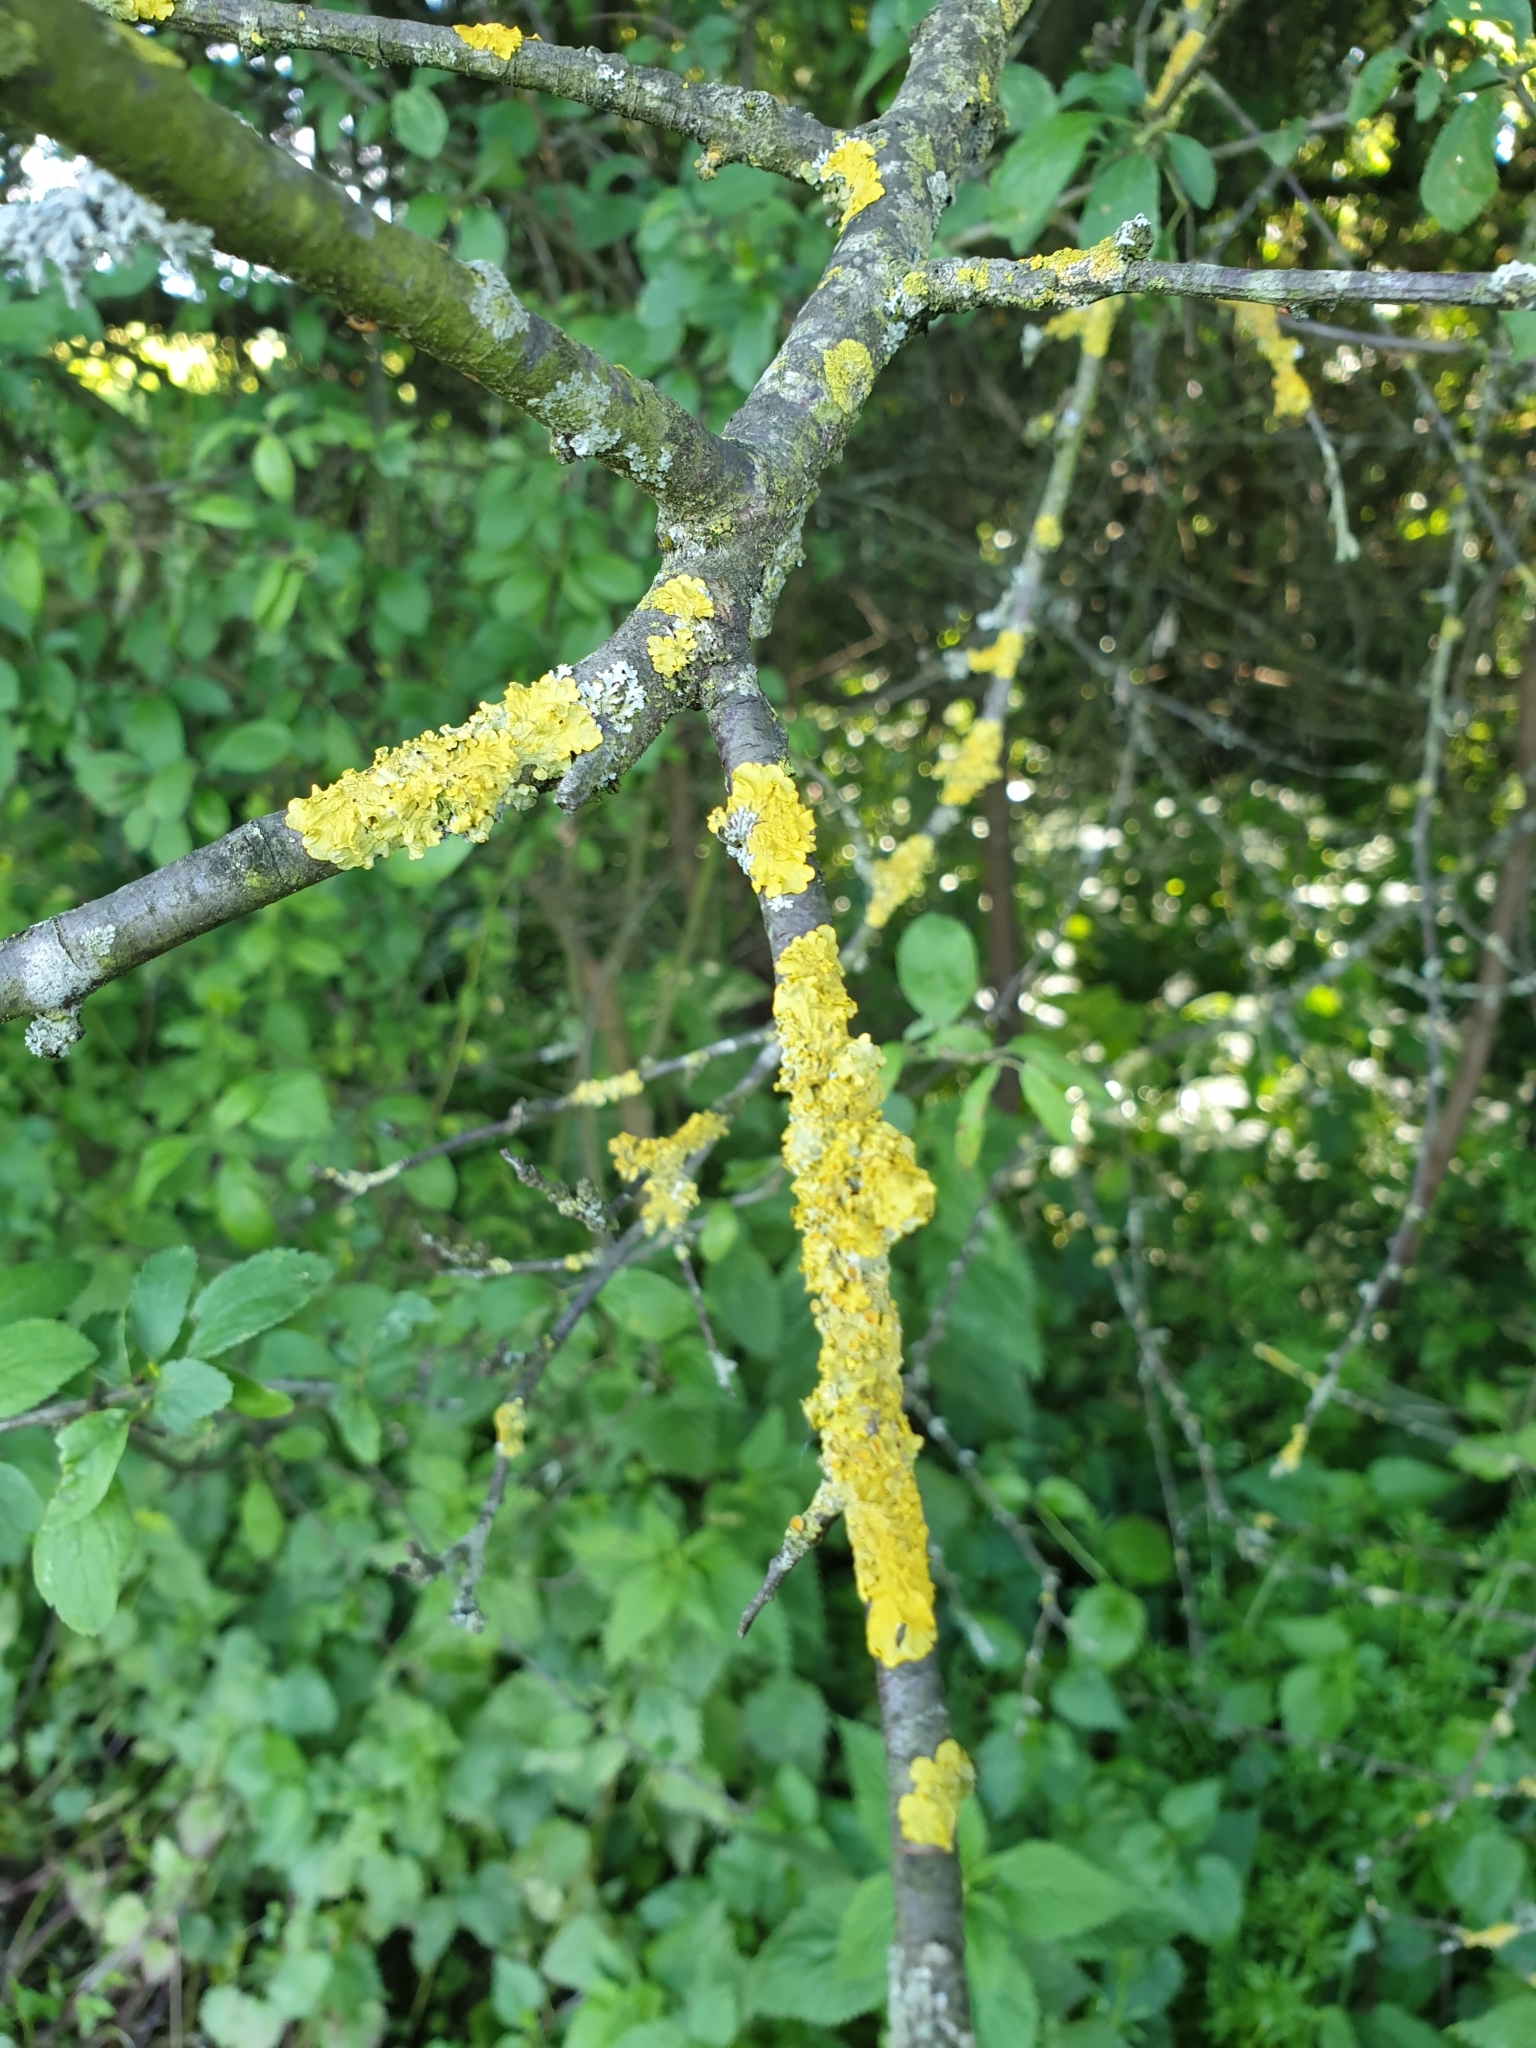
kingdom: Fungi
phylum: Ascomycota
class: Lecanoromycetes
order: Teloschistales
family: Teloschistaceae
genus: Xanthoria
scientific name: Xanthoria parietina
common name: Common orange lichen
